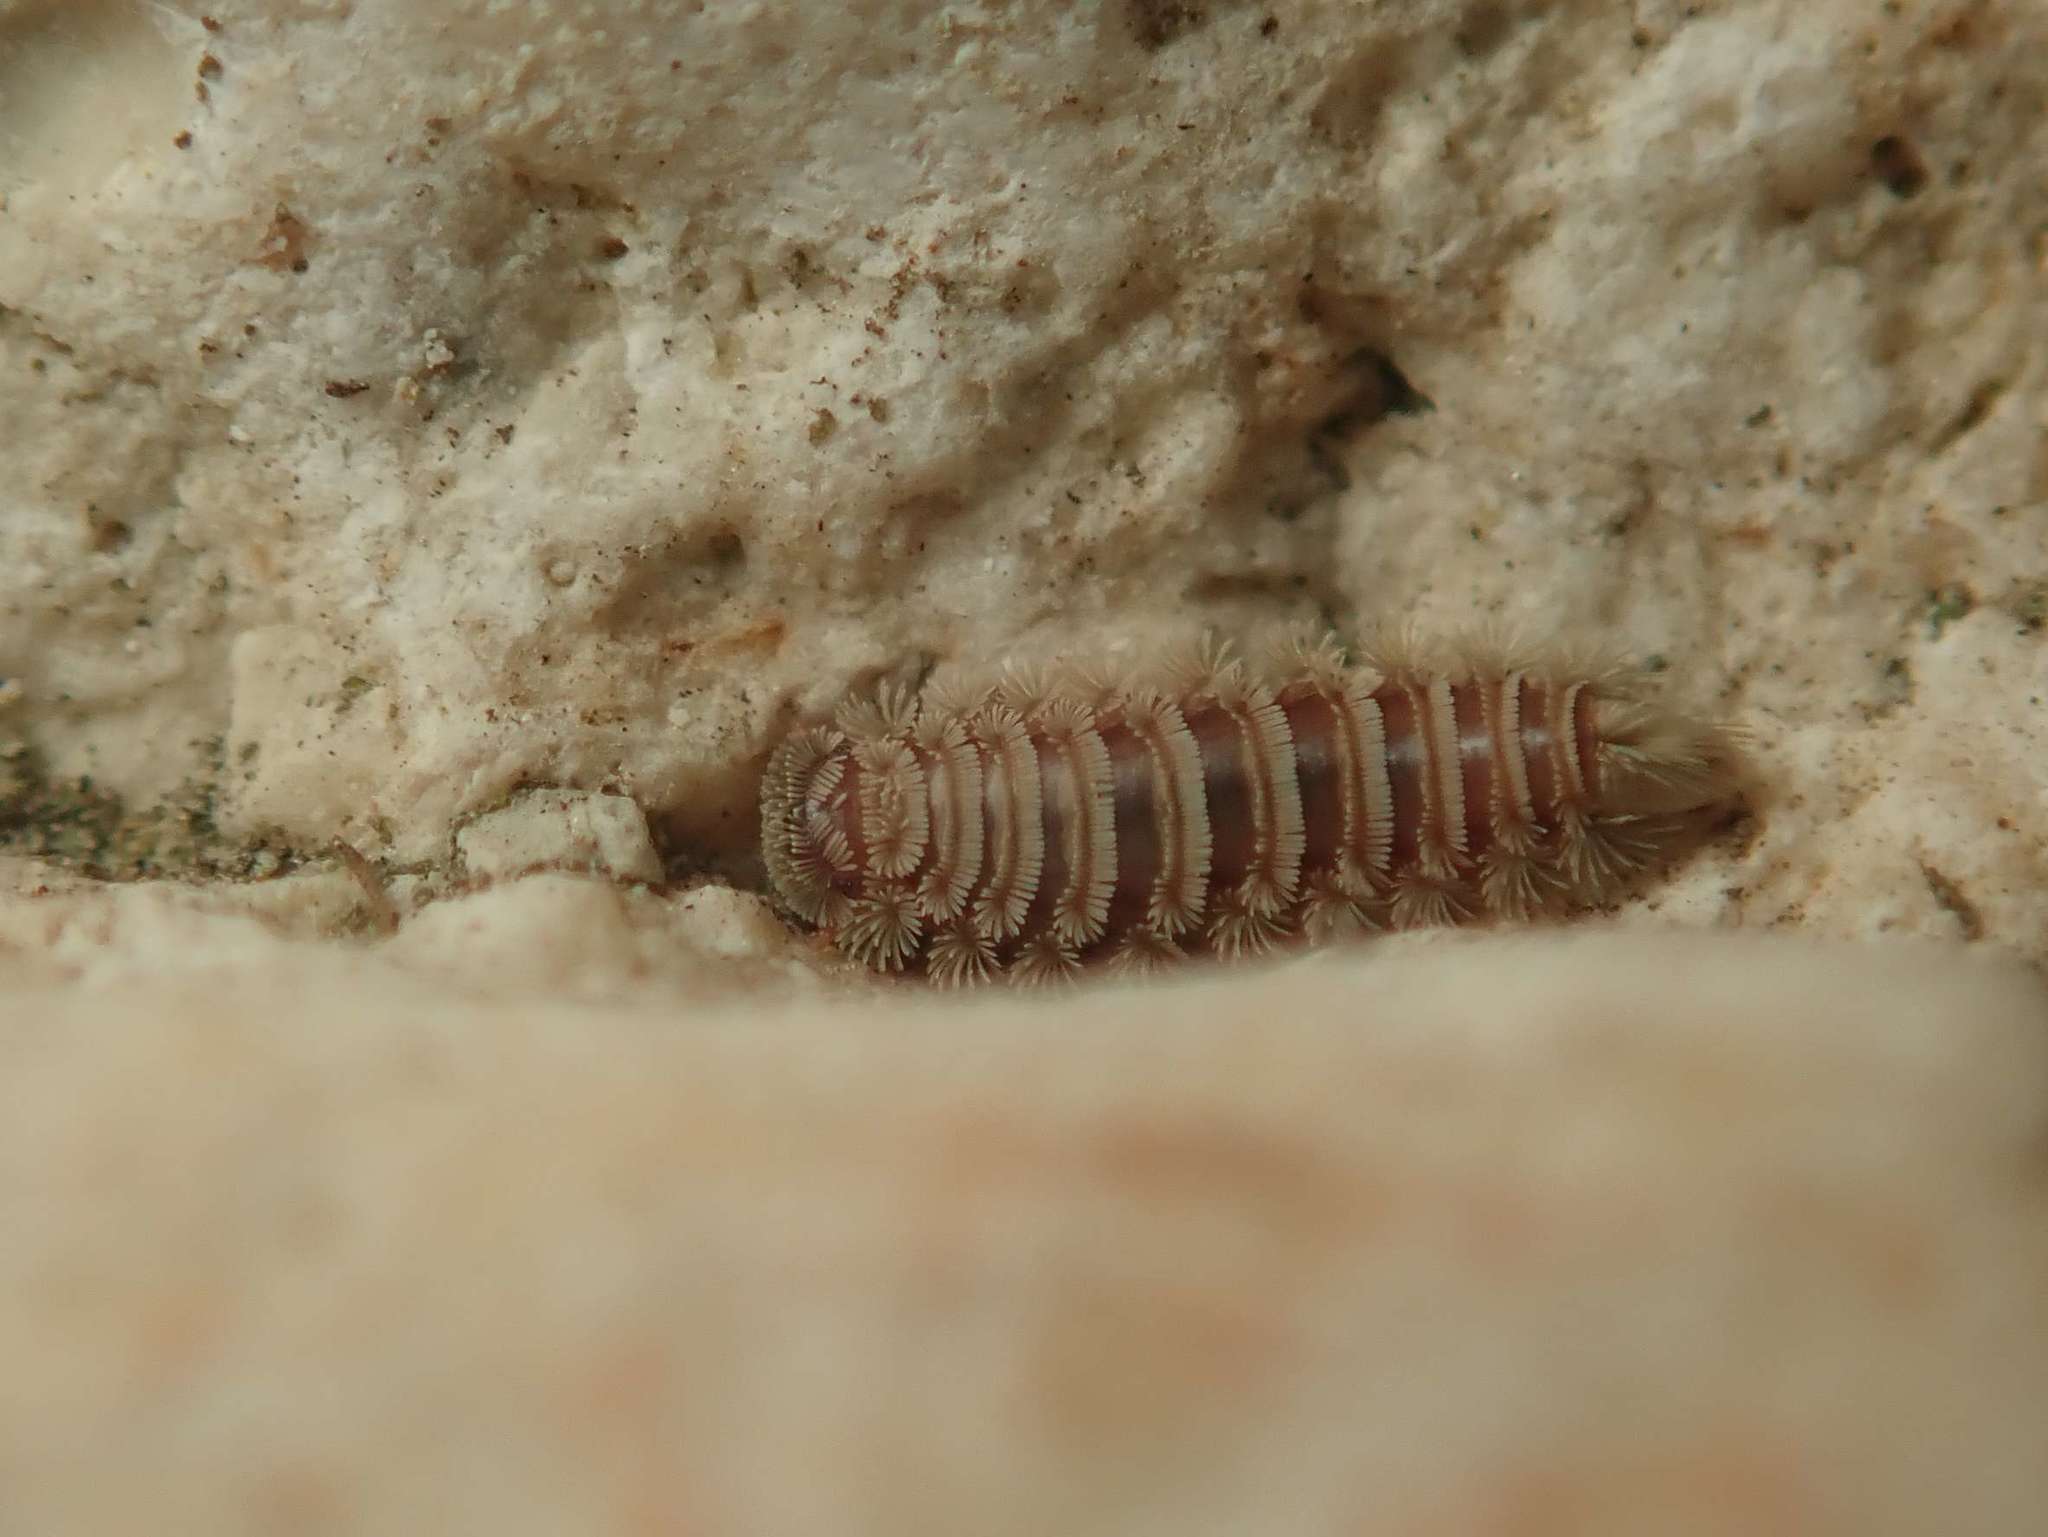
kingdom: Animalia
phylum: Arthropoda
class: Diplopoda
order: Polyxenida
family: Polyxenidae
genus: Polyxenus
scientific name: Polyxenus lagurus
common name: Bristly millipede
